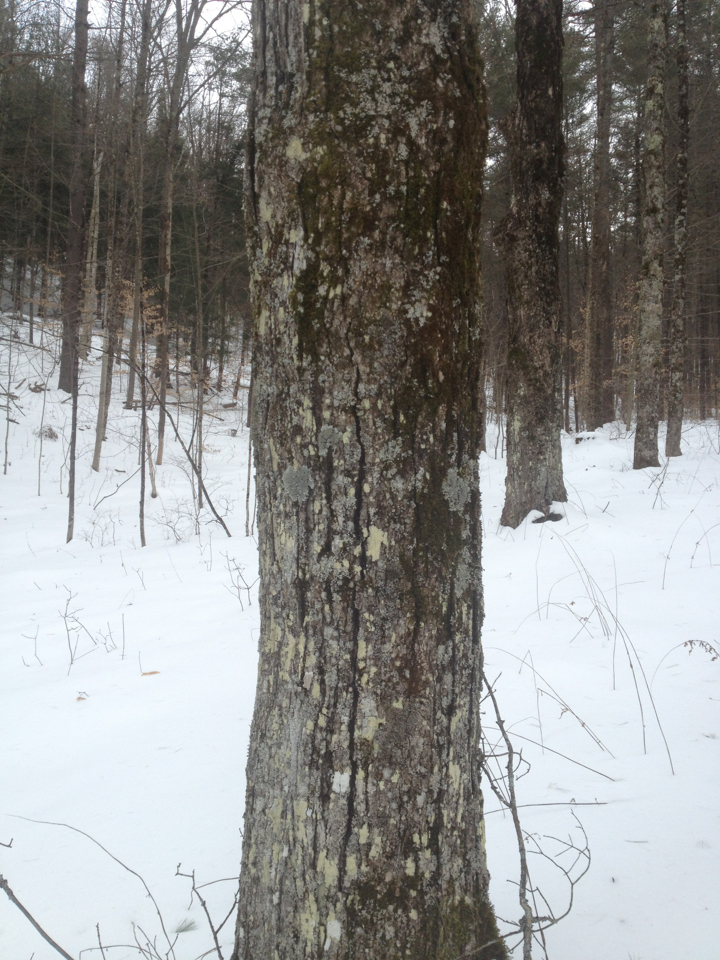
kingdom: Plantae
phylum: Tracheophyta
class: Magnoliopsida
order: Sapindales
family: Sapindaceae
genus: Acer
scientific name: Acer saccharum
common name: Sugar maple
